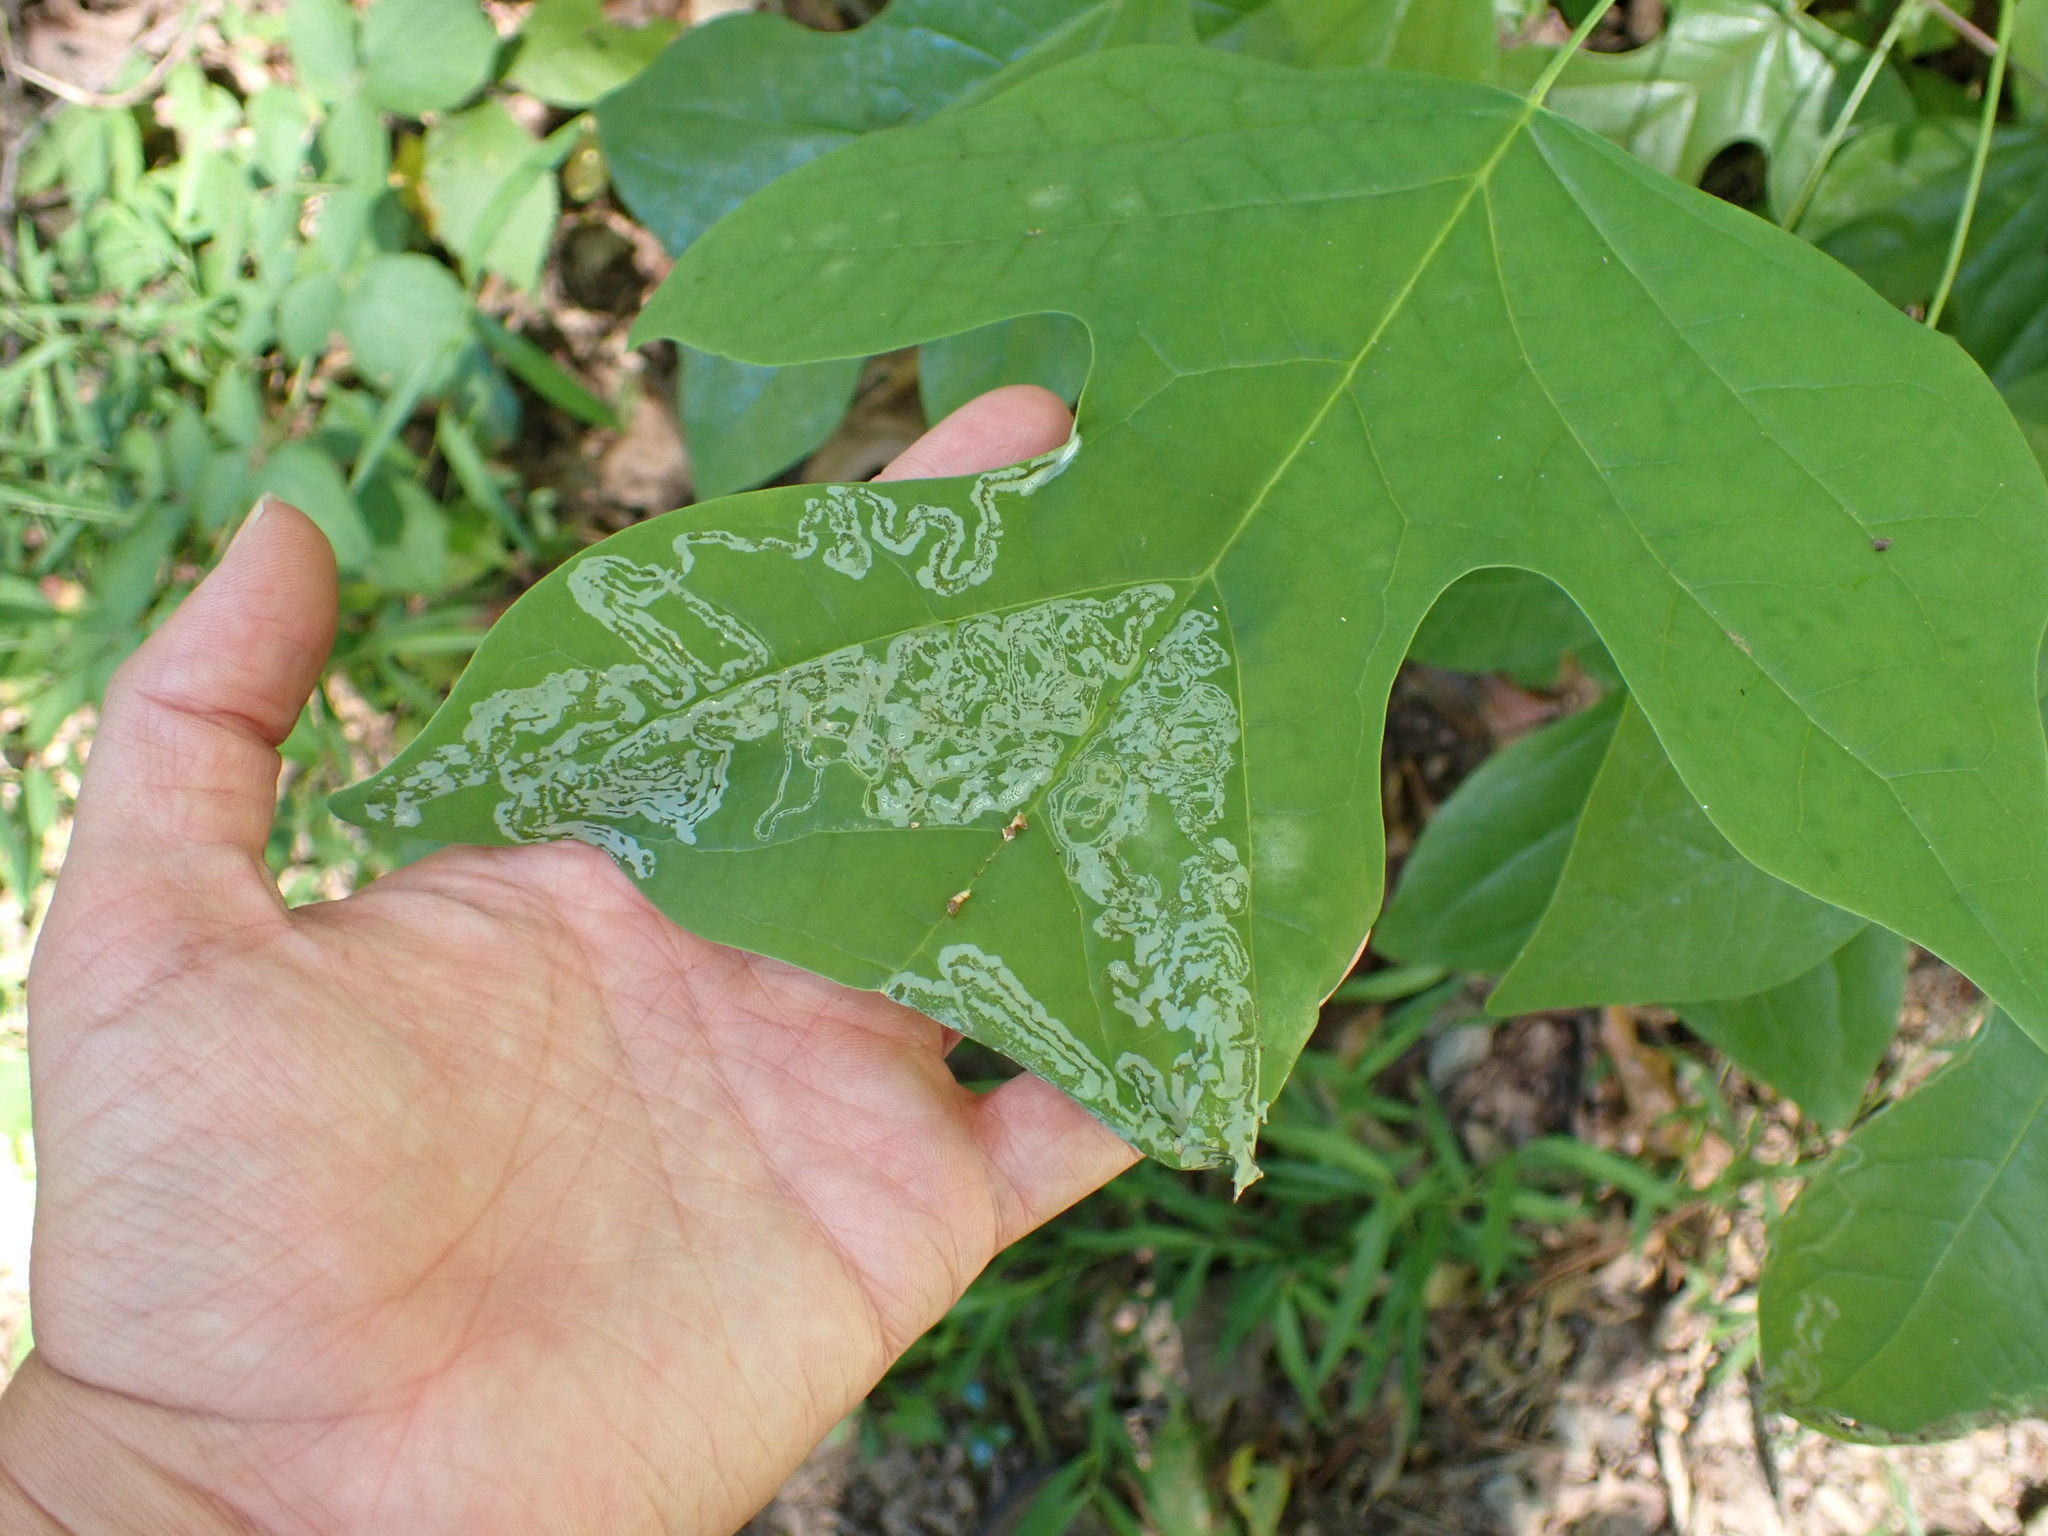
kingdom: Animalia
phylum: Arthropoda
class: Insecta
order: Lepidoptera
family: Gracillariidae
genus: Phyllocnistis
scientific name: Phyllocnistis liriodendronella
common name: Tulip tree leaf miner
